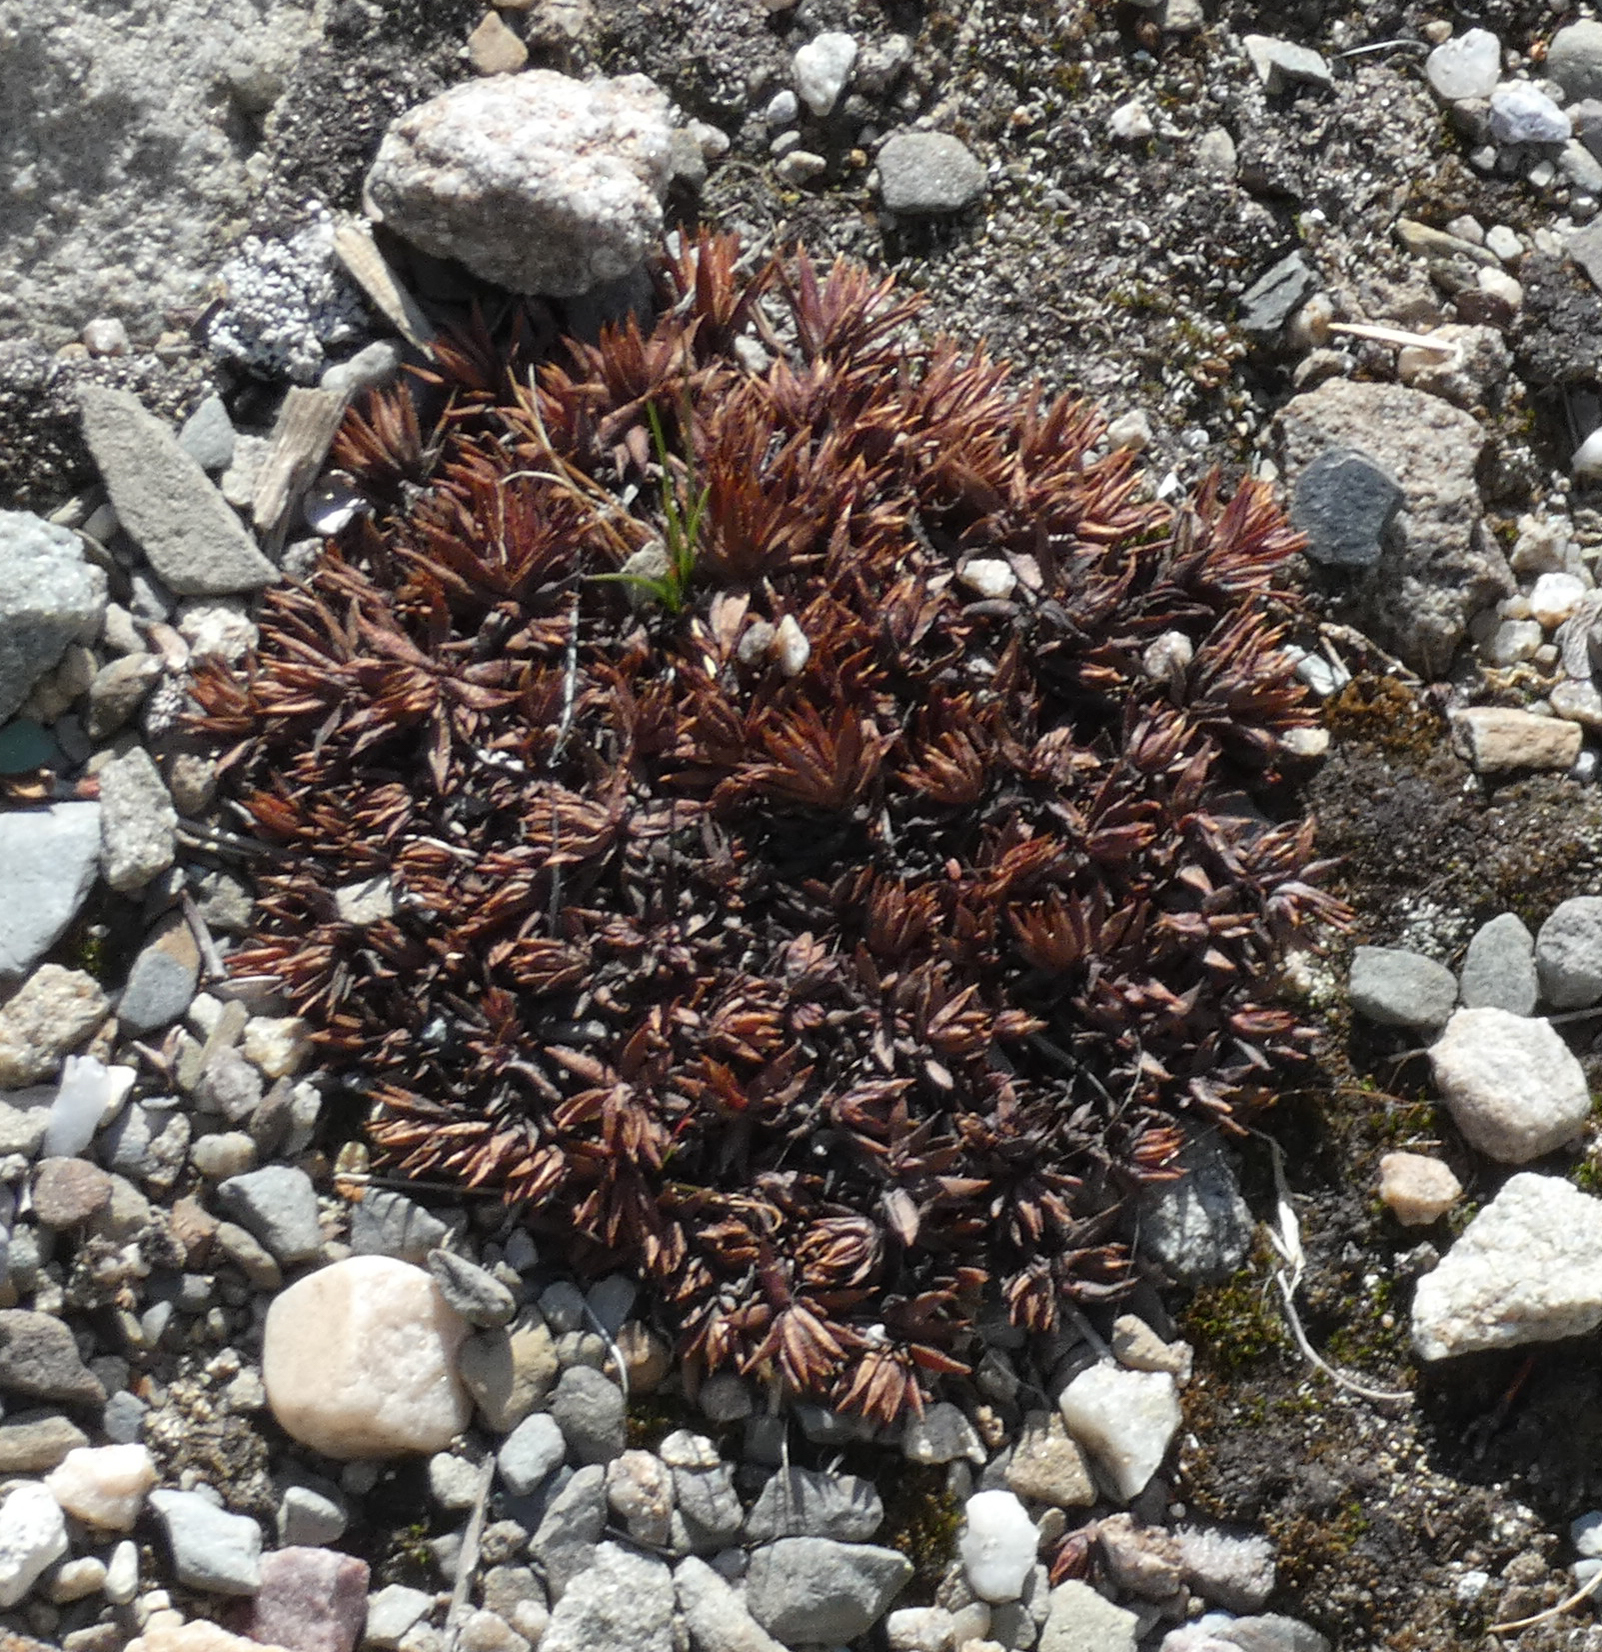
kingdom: Plantae
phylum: Tracheophyta
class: Magnoliopsida
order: Saxifragales
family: Saxifragaceae
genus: Saxifraga
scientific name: Saxifraga bronchialis
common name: Matted saxifrage
